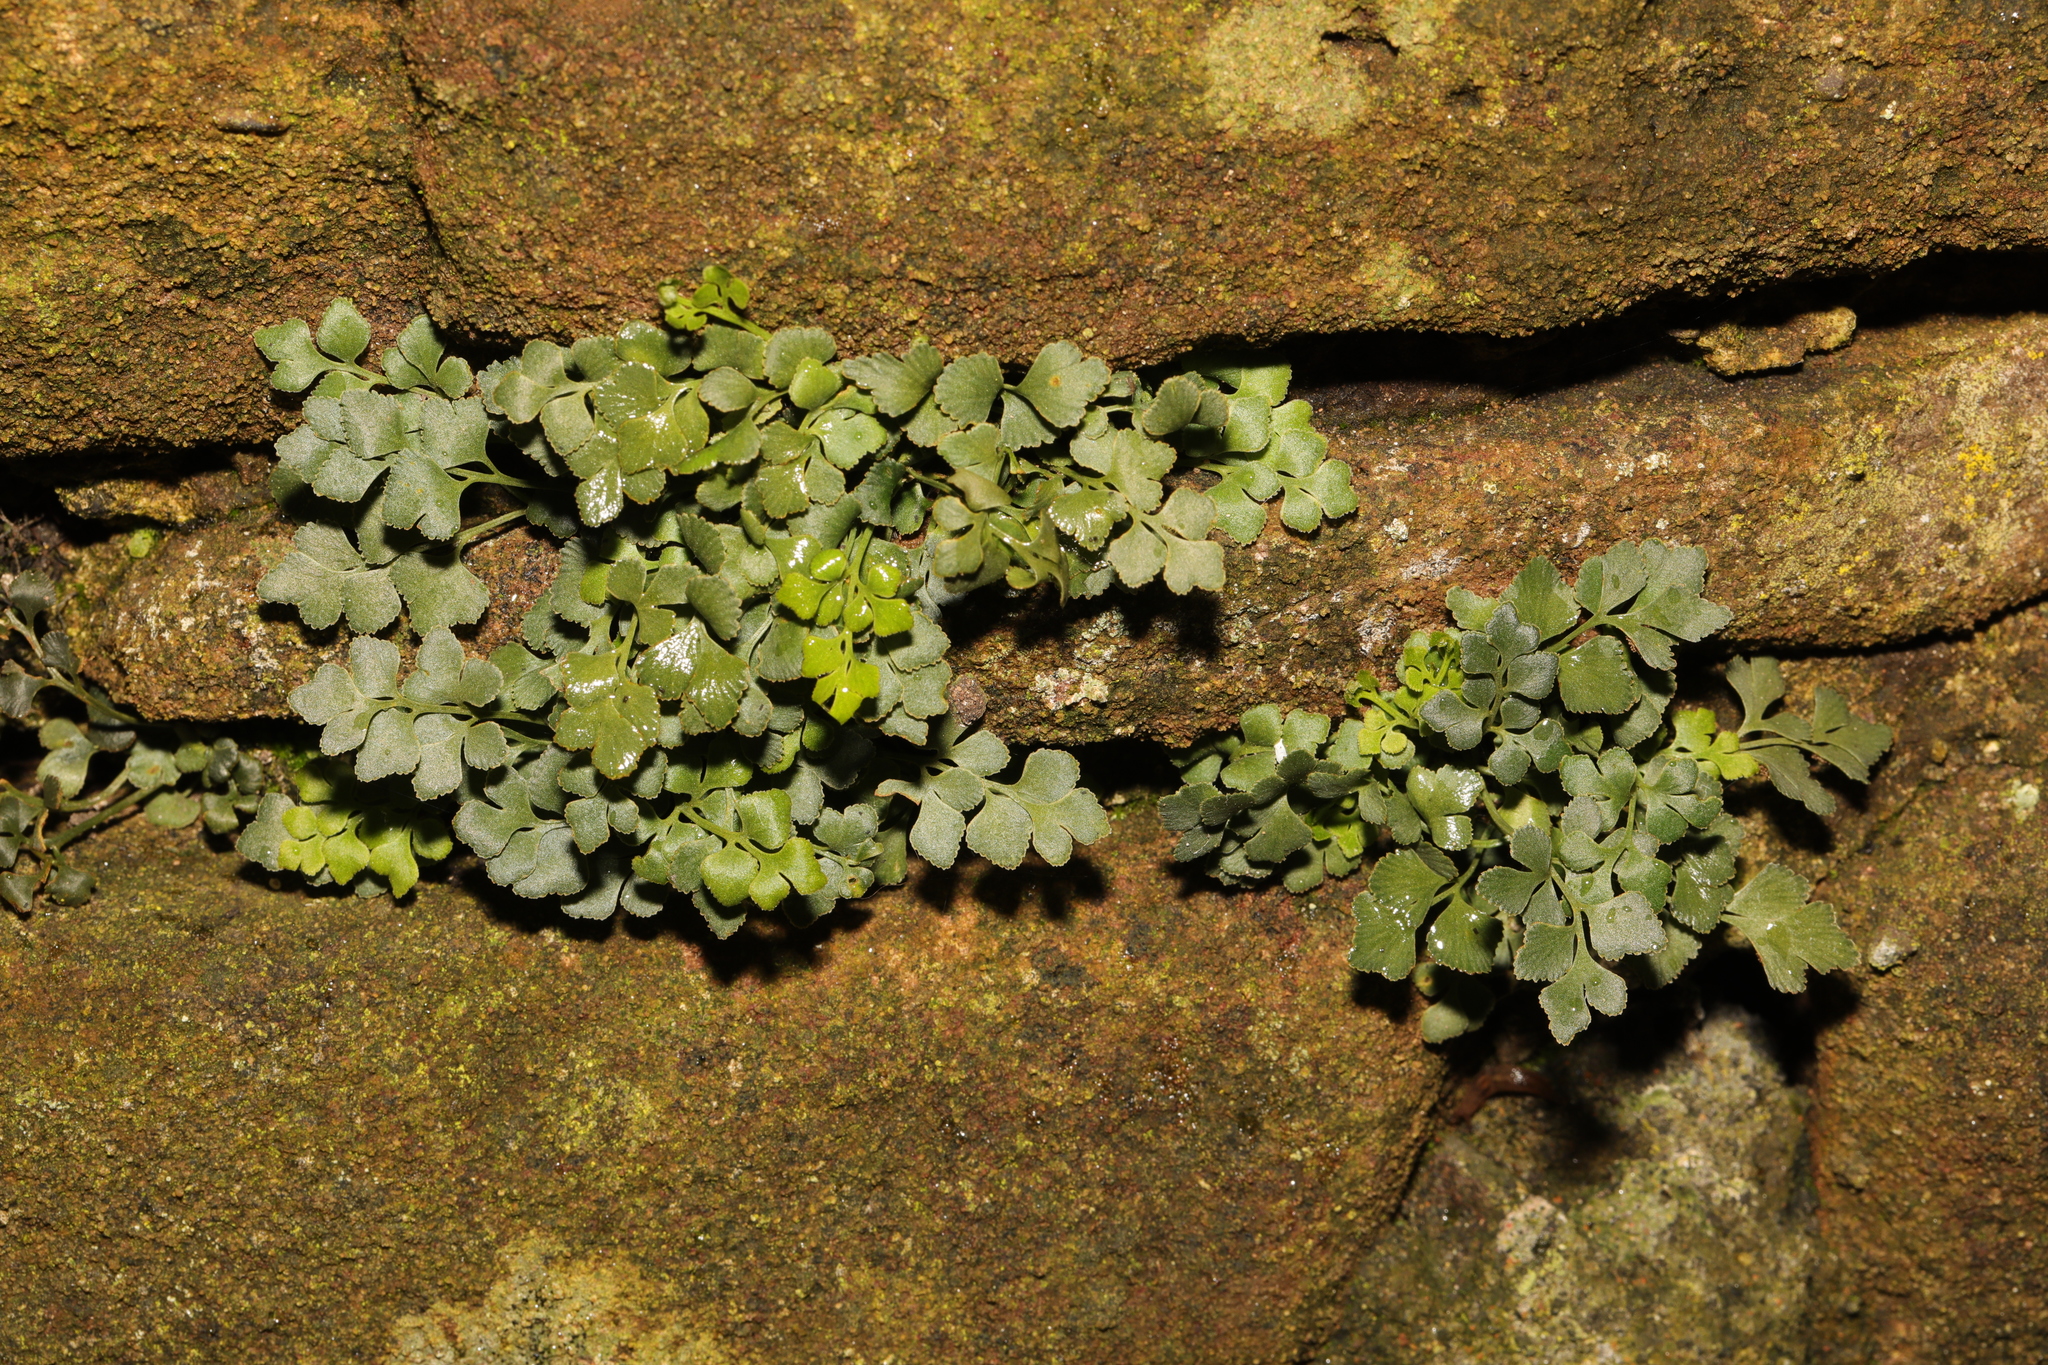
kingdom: Plantae
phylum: Tracheophyta
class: Polypodiopsida
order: Polypodiales
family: Aspleniaceae
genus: Asplenium
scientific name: Asplenium ruta-muraria
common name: Wall-rue
